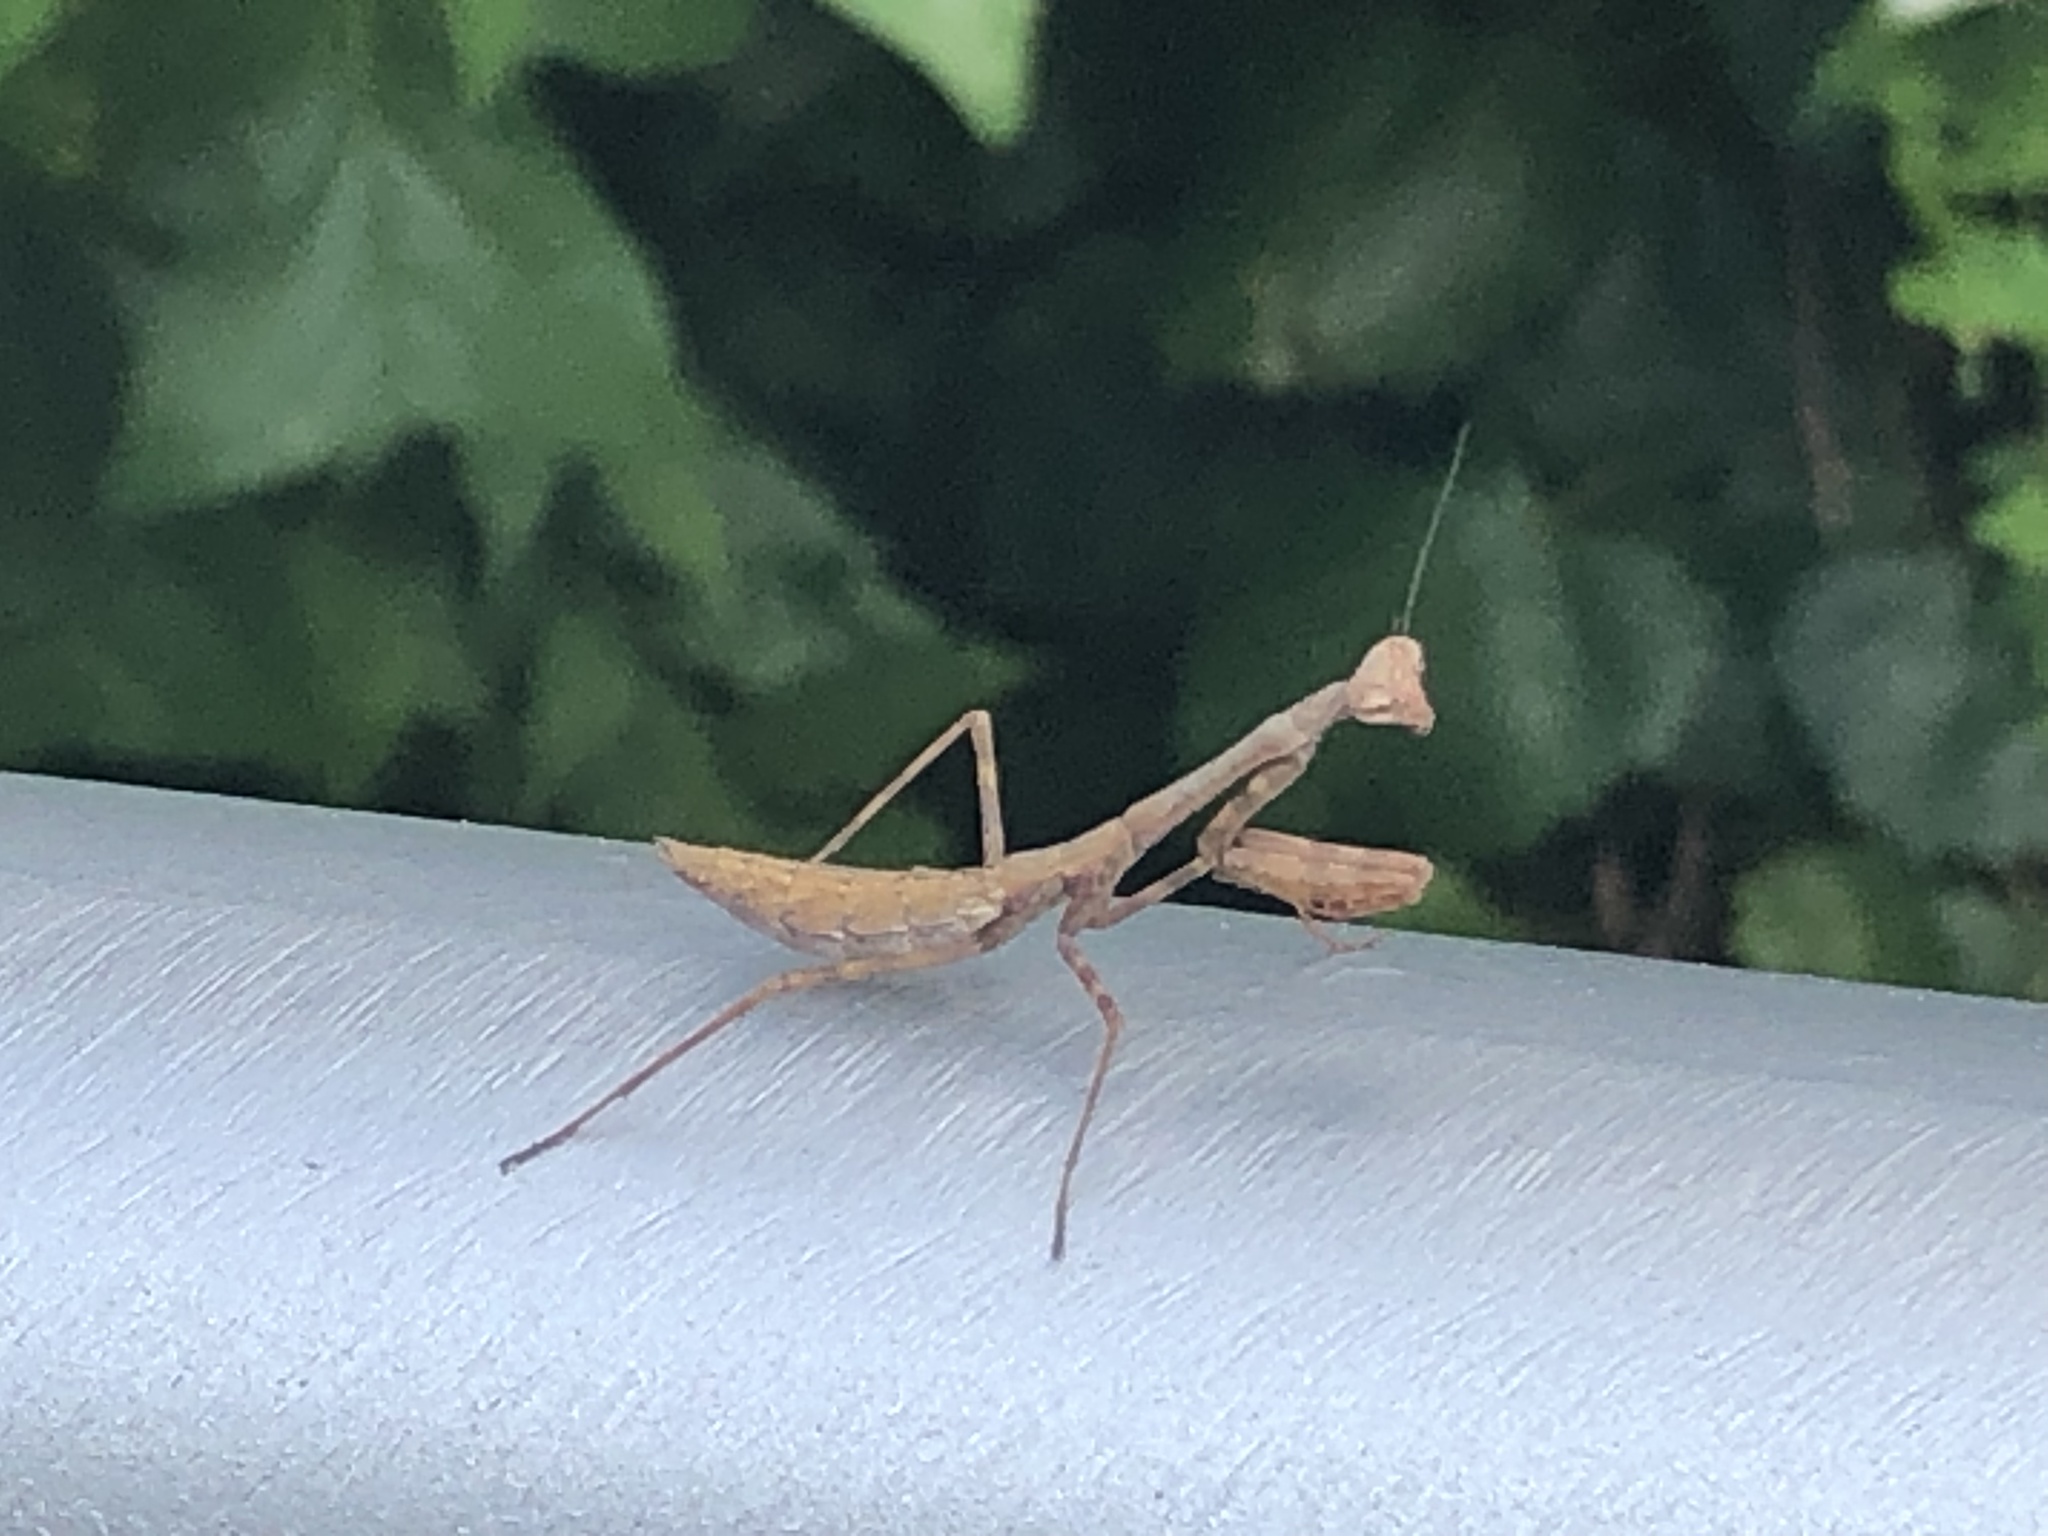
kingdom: Animalia
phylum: Arthropoda
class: Insecta
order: Mantodea
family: Mantidae
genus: Stagmomantis
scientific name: Stagmomantis carolina
